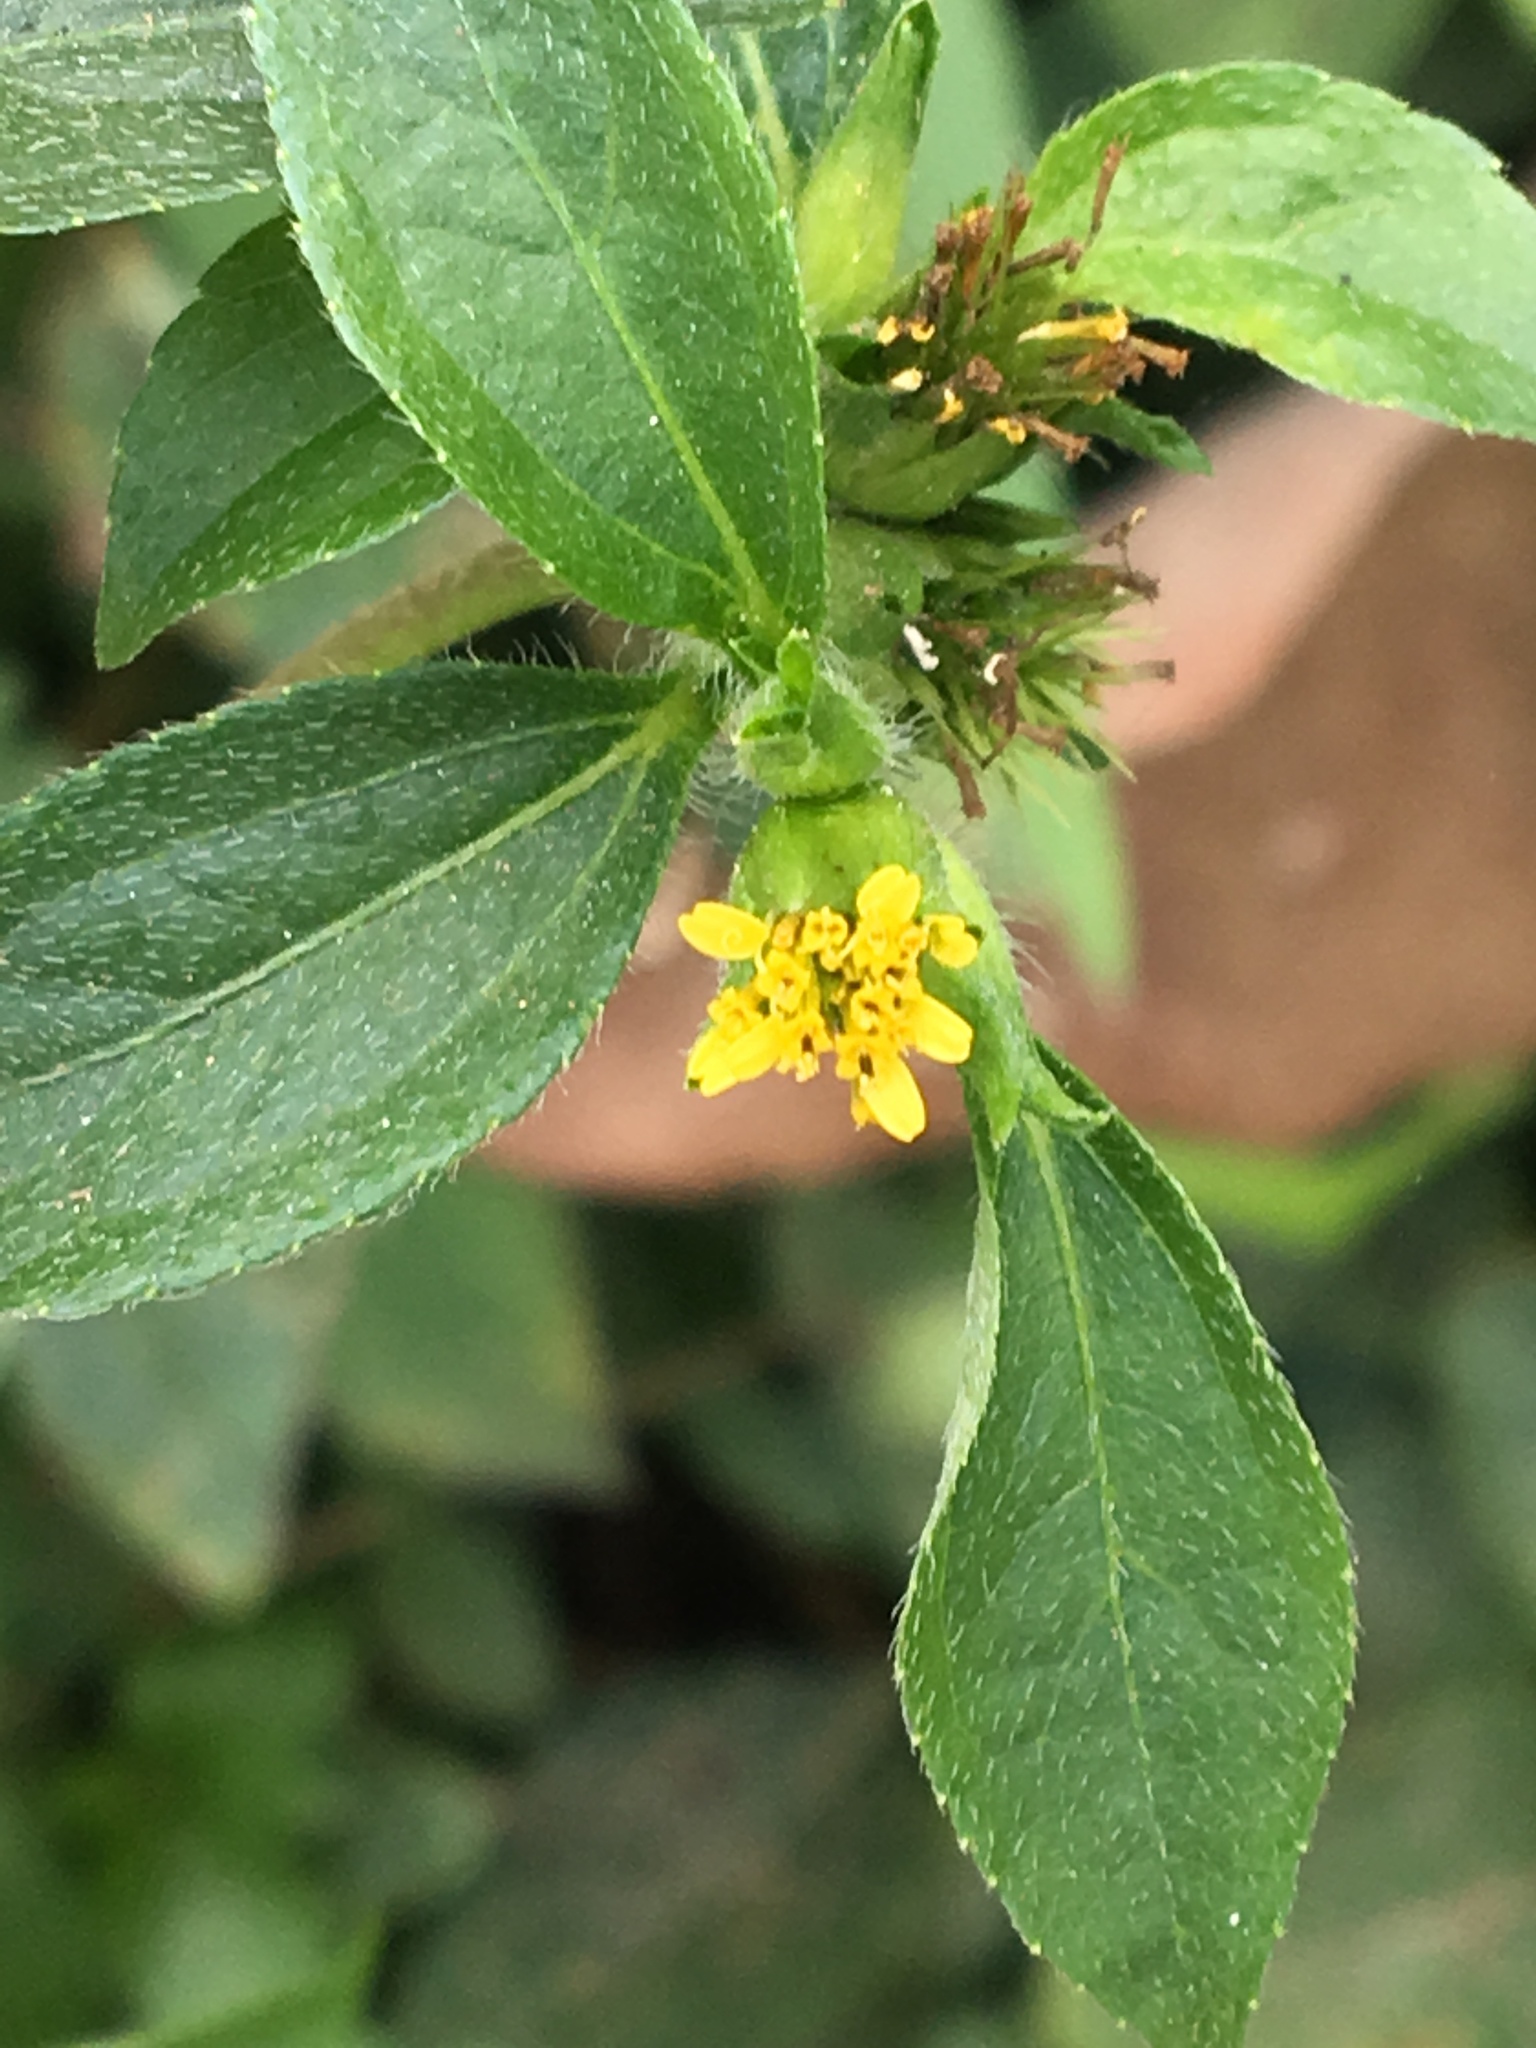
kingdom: Plantae
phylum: Tracheophyta
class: Magnoliopsida
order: Asterales
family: Asteraceae
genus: Synedrella
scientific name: Synedrella nodiflora
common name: Nodeweed
